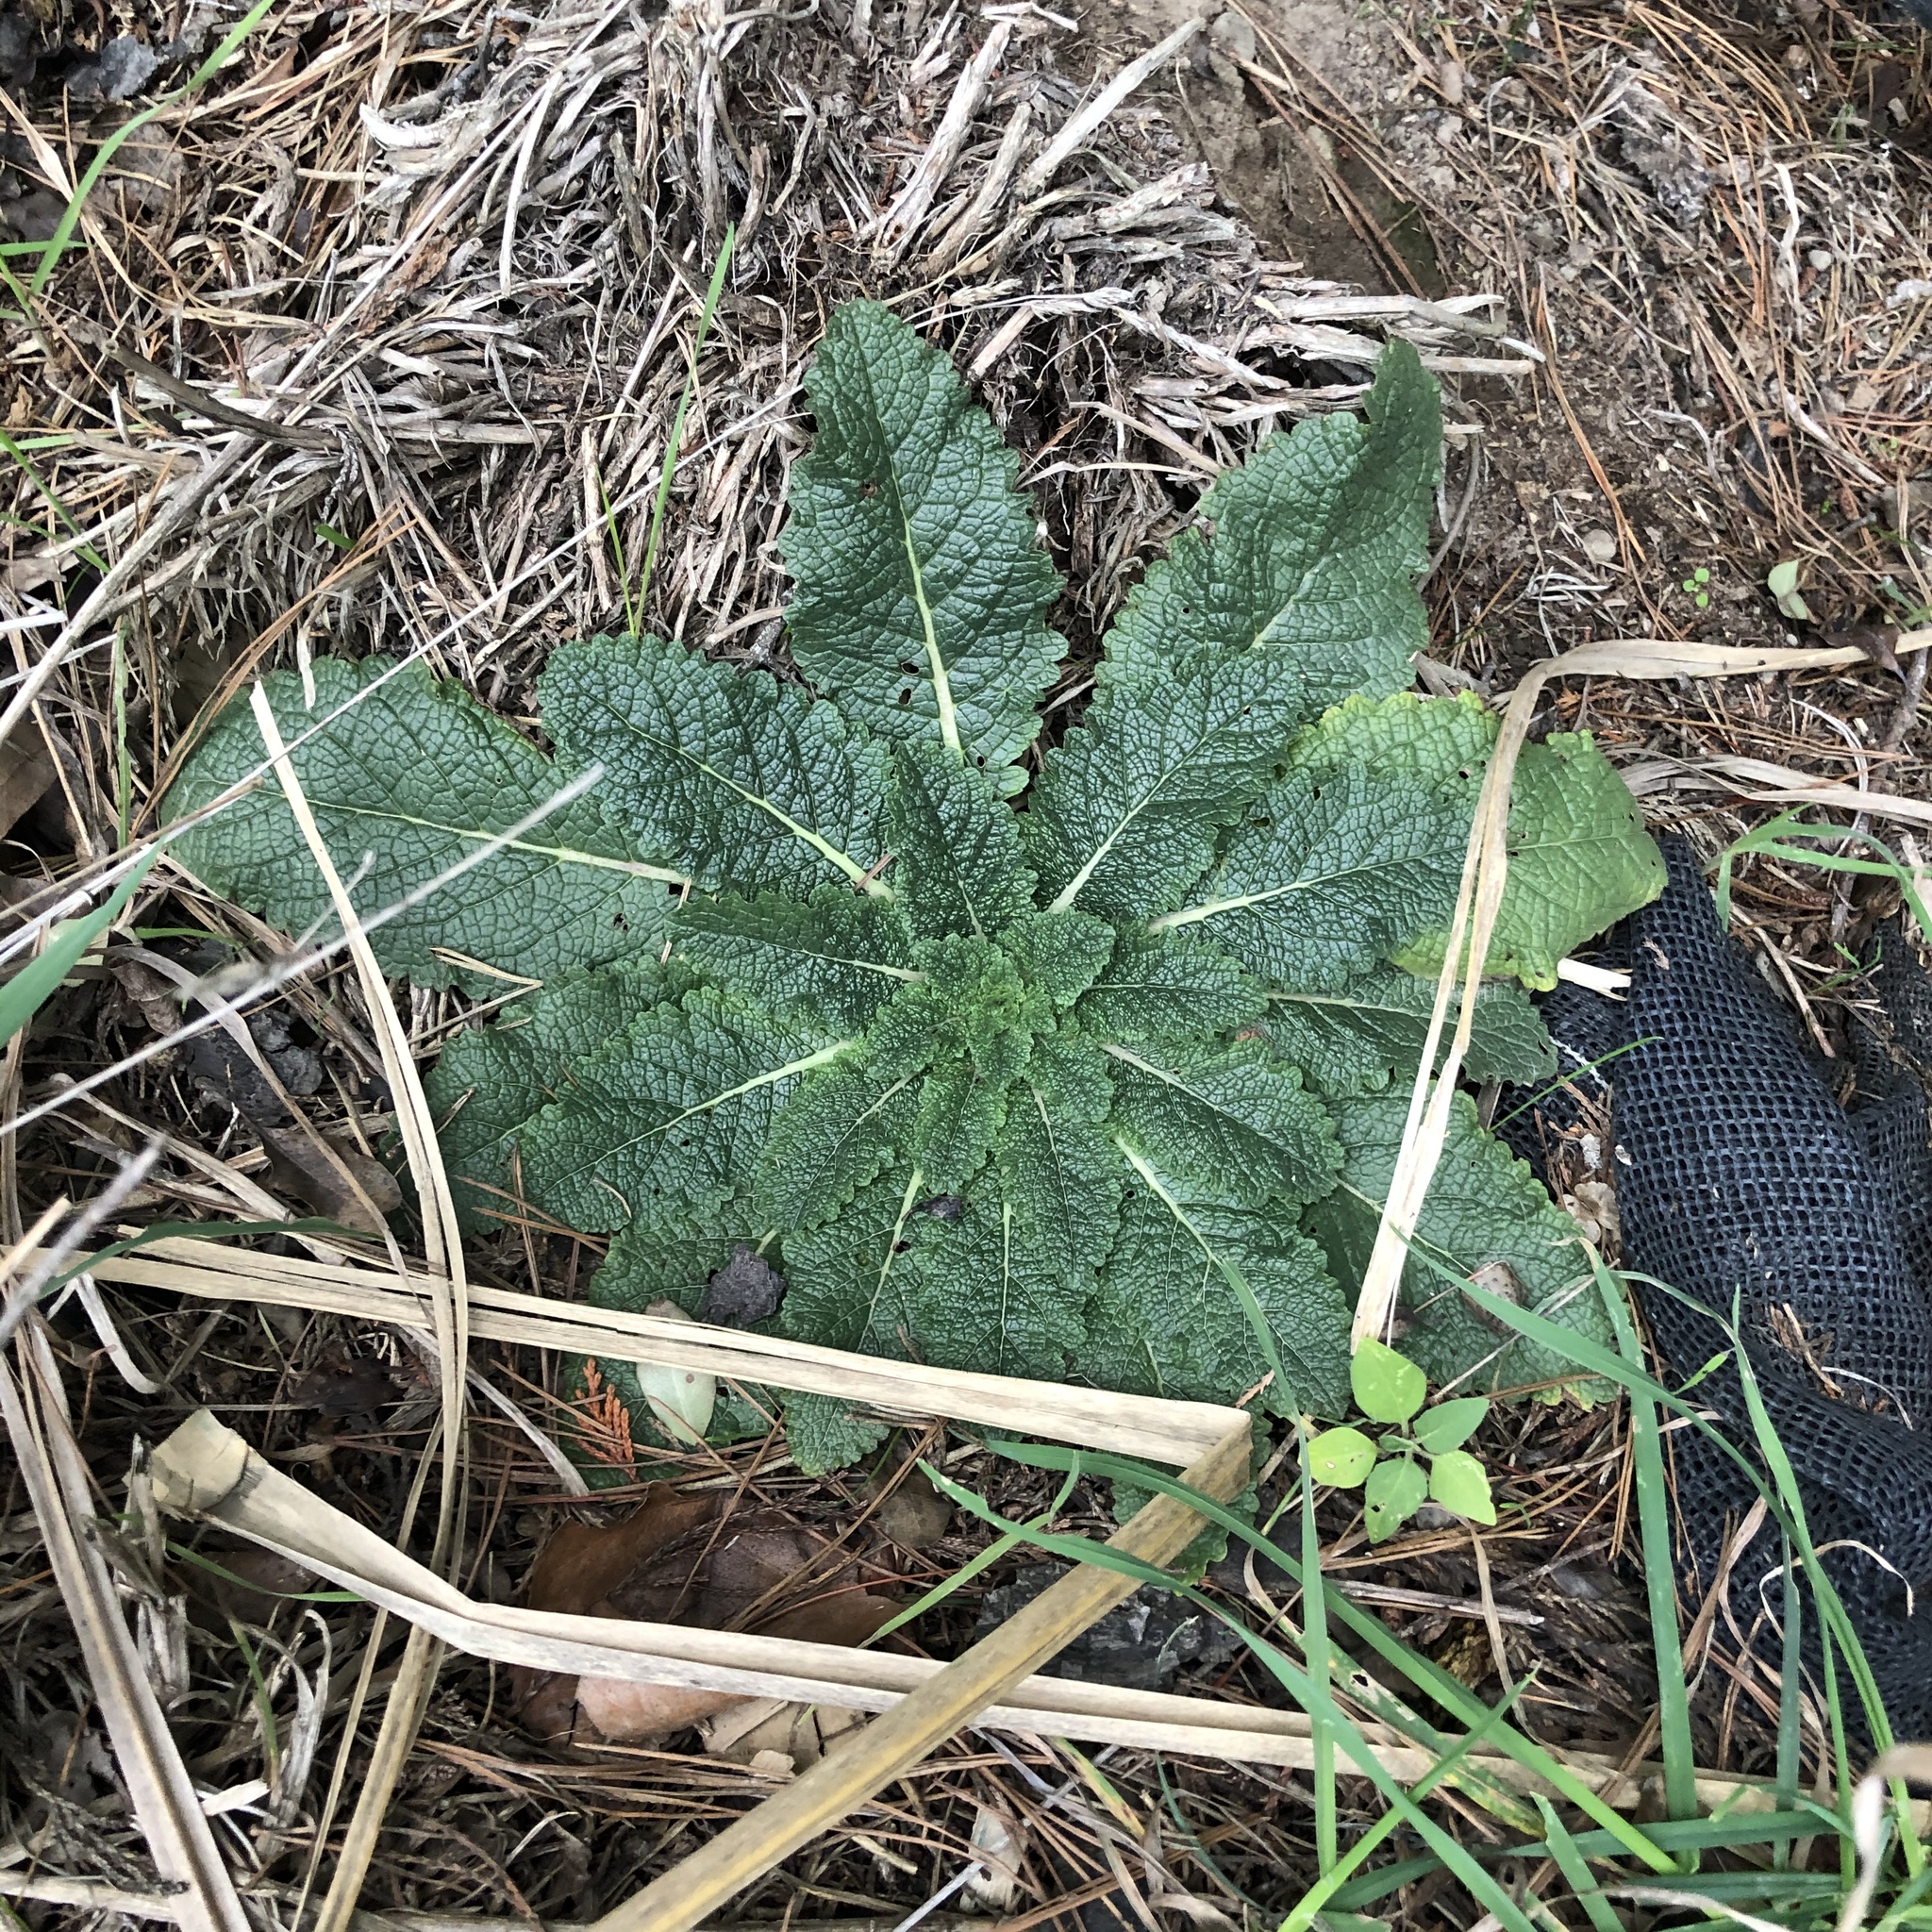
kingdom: Plantae
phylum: Tracheophyta
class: Magnoliopsida
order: Lamiales
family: Scrophulariaceae
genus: Verbascum
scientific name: Verbascum virgatum
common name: Twiggy mullein
